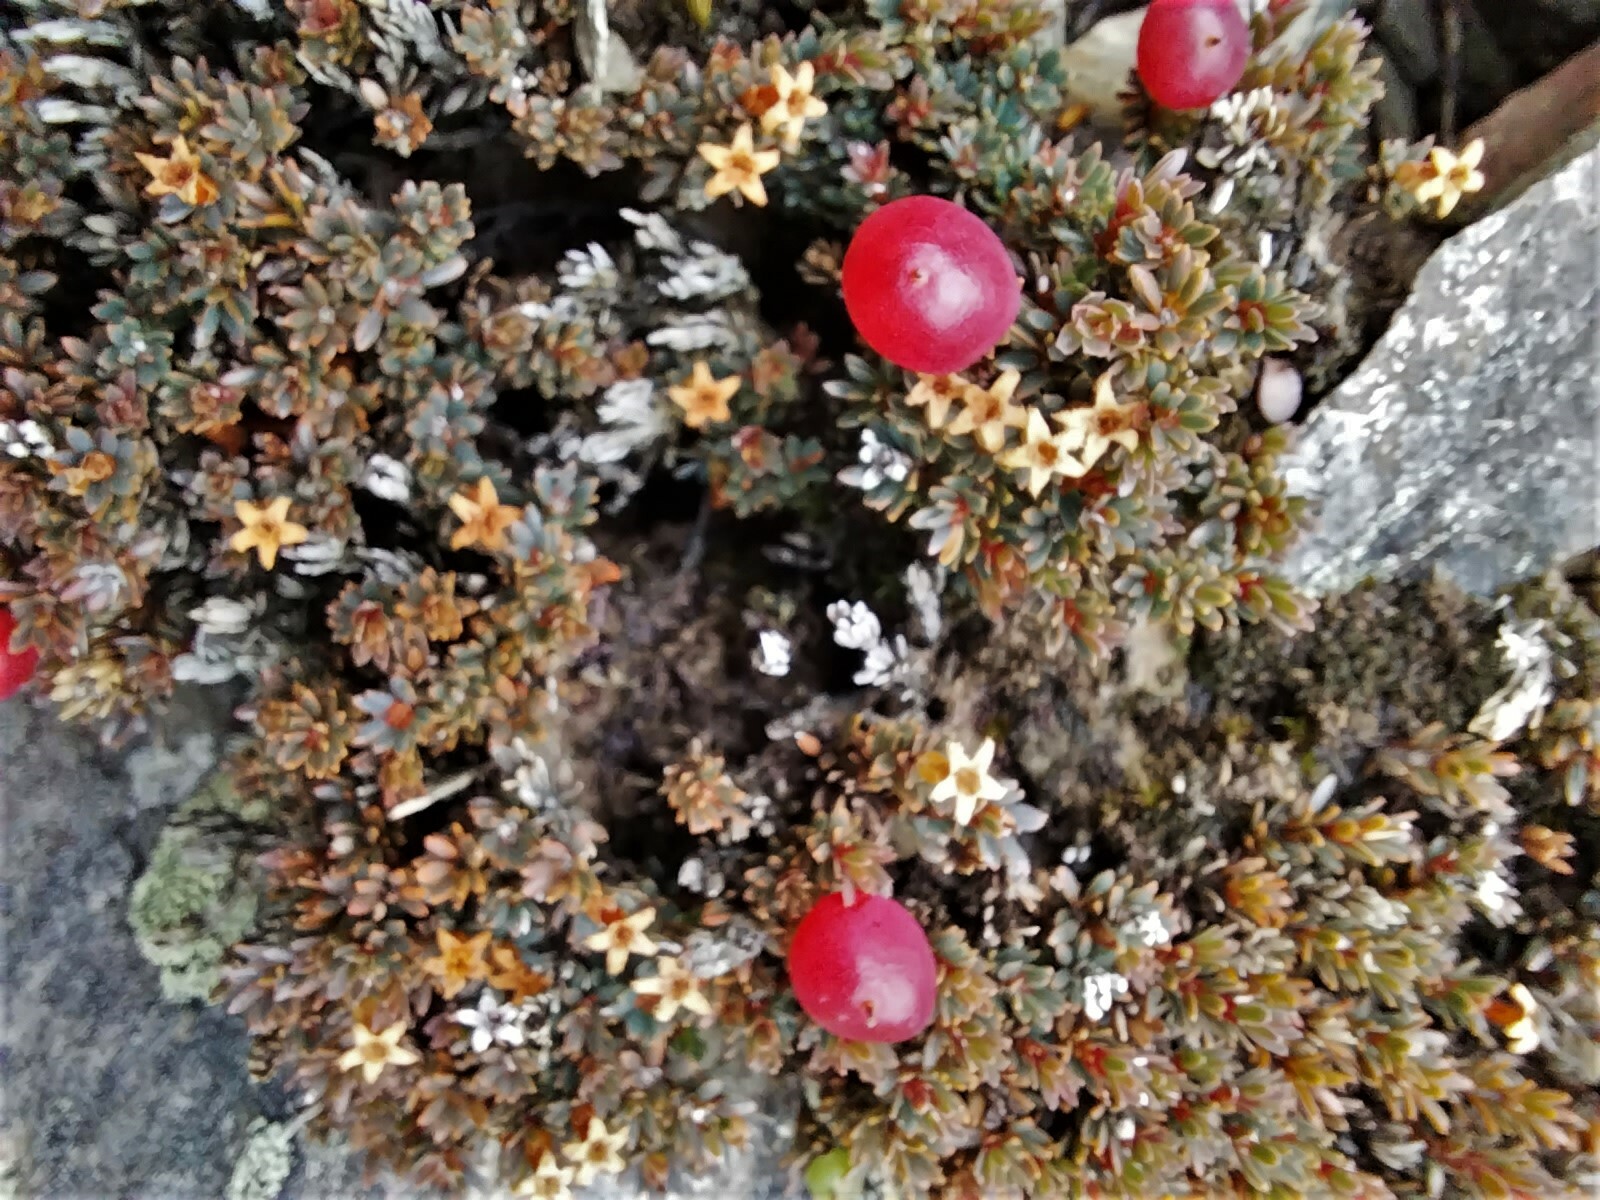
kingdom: Plantae
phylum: Tracheophyta
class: Magnoliopsida
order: Ericales
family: Ericaceae
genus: Pentachondra
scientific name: Pentachondra pumila
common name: Carpet-heath
